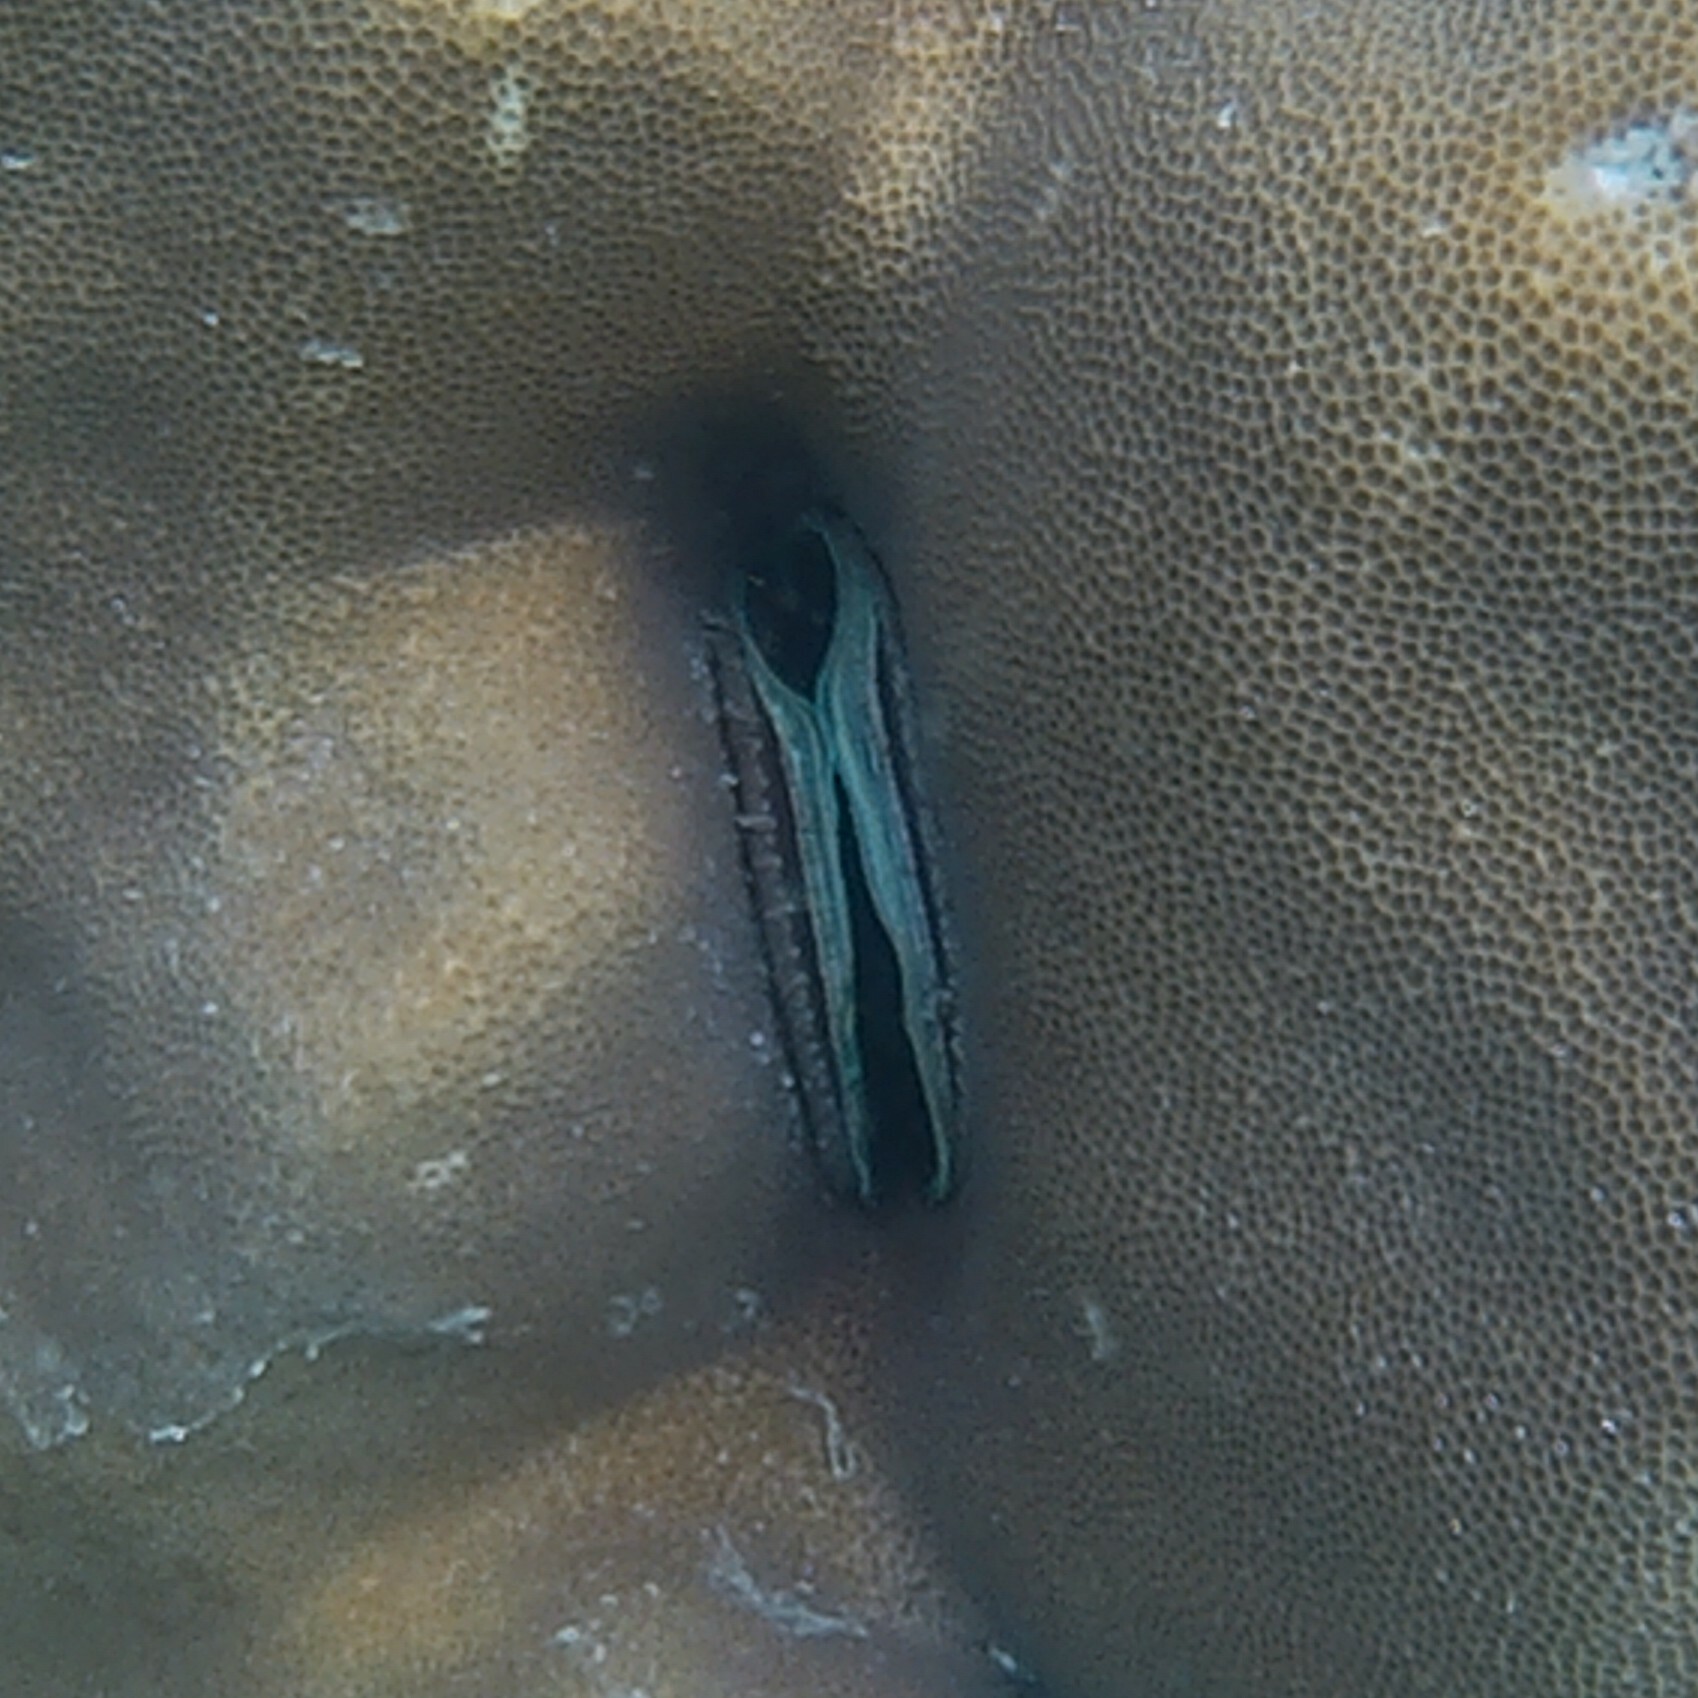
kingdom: Animalia
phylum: Mollusca
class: Bivalvia
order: Pectinida
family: Pectinidae
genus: Pedum
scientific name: Pedum spondyloideum
